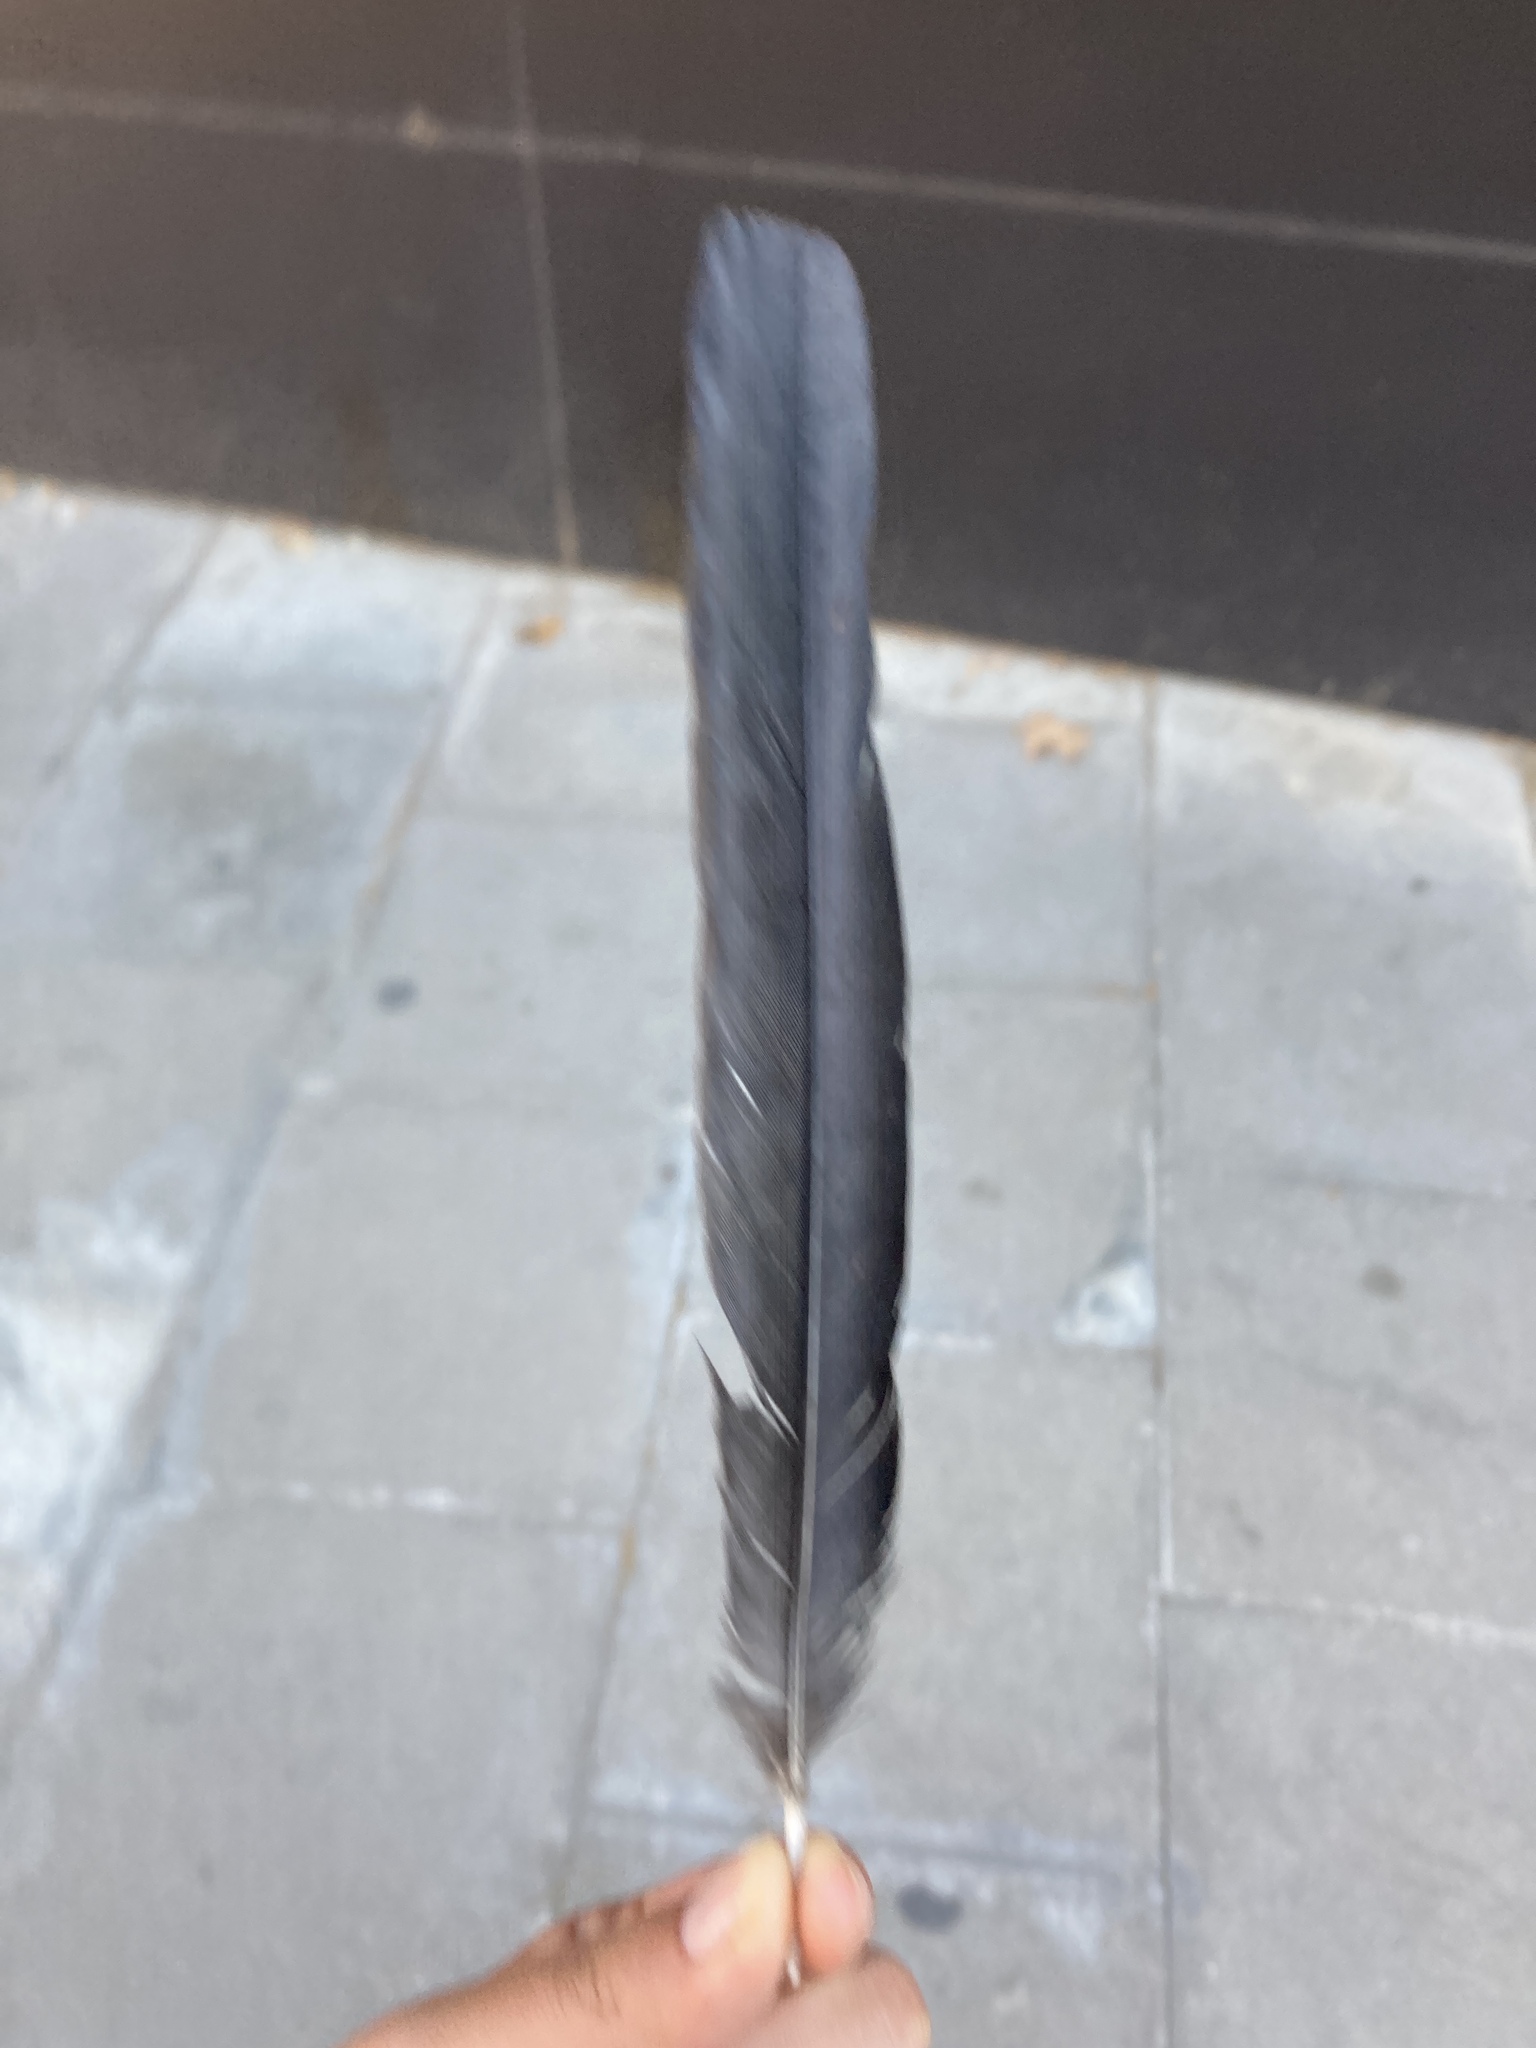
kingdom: Animalia
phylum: Chordata
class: Aves
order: Passeriformes
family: Corvidae
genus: Pica
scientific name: Pica pica
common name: Eurasian magpie
